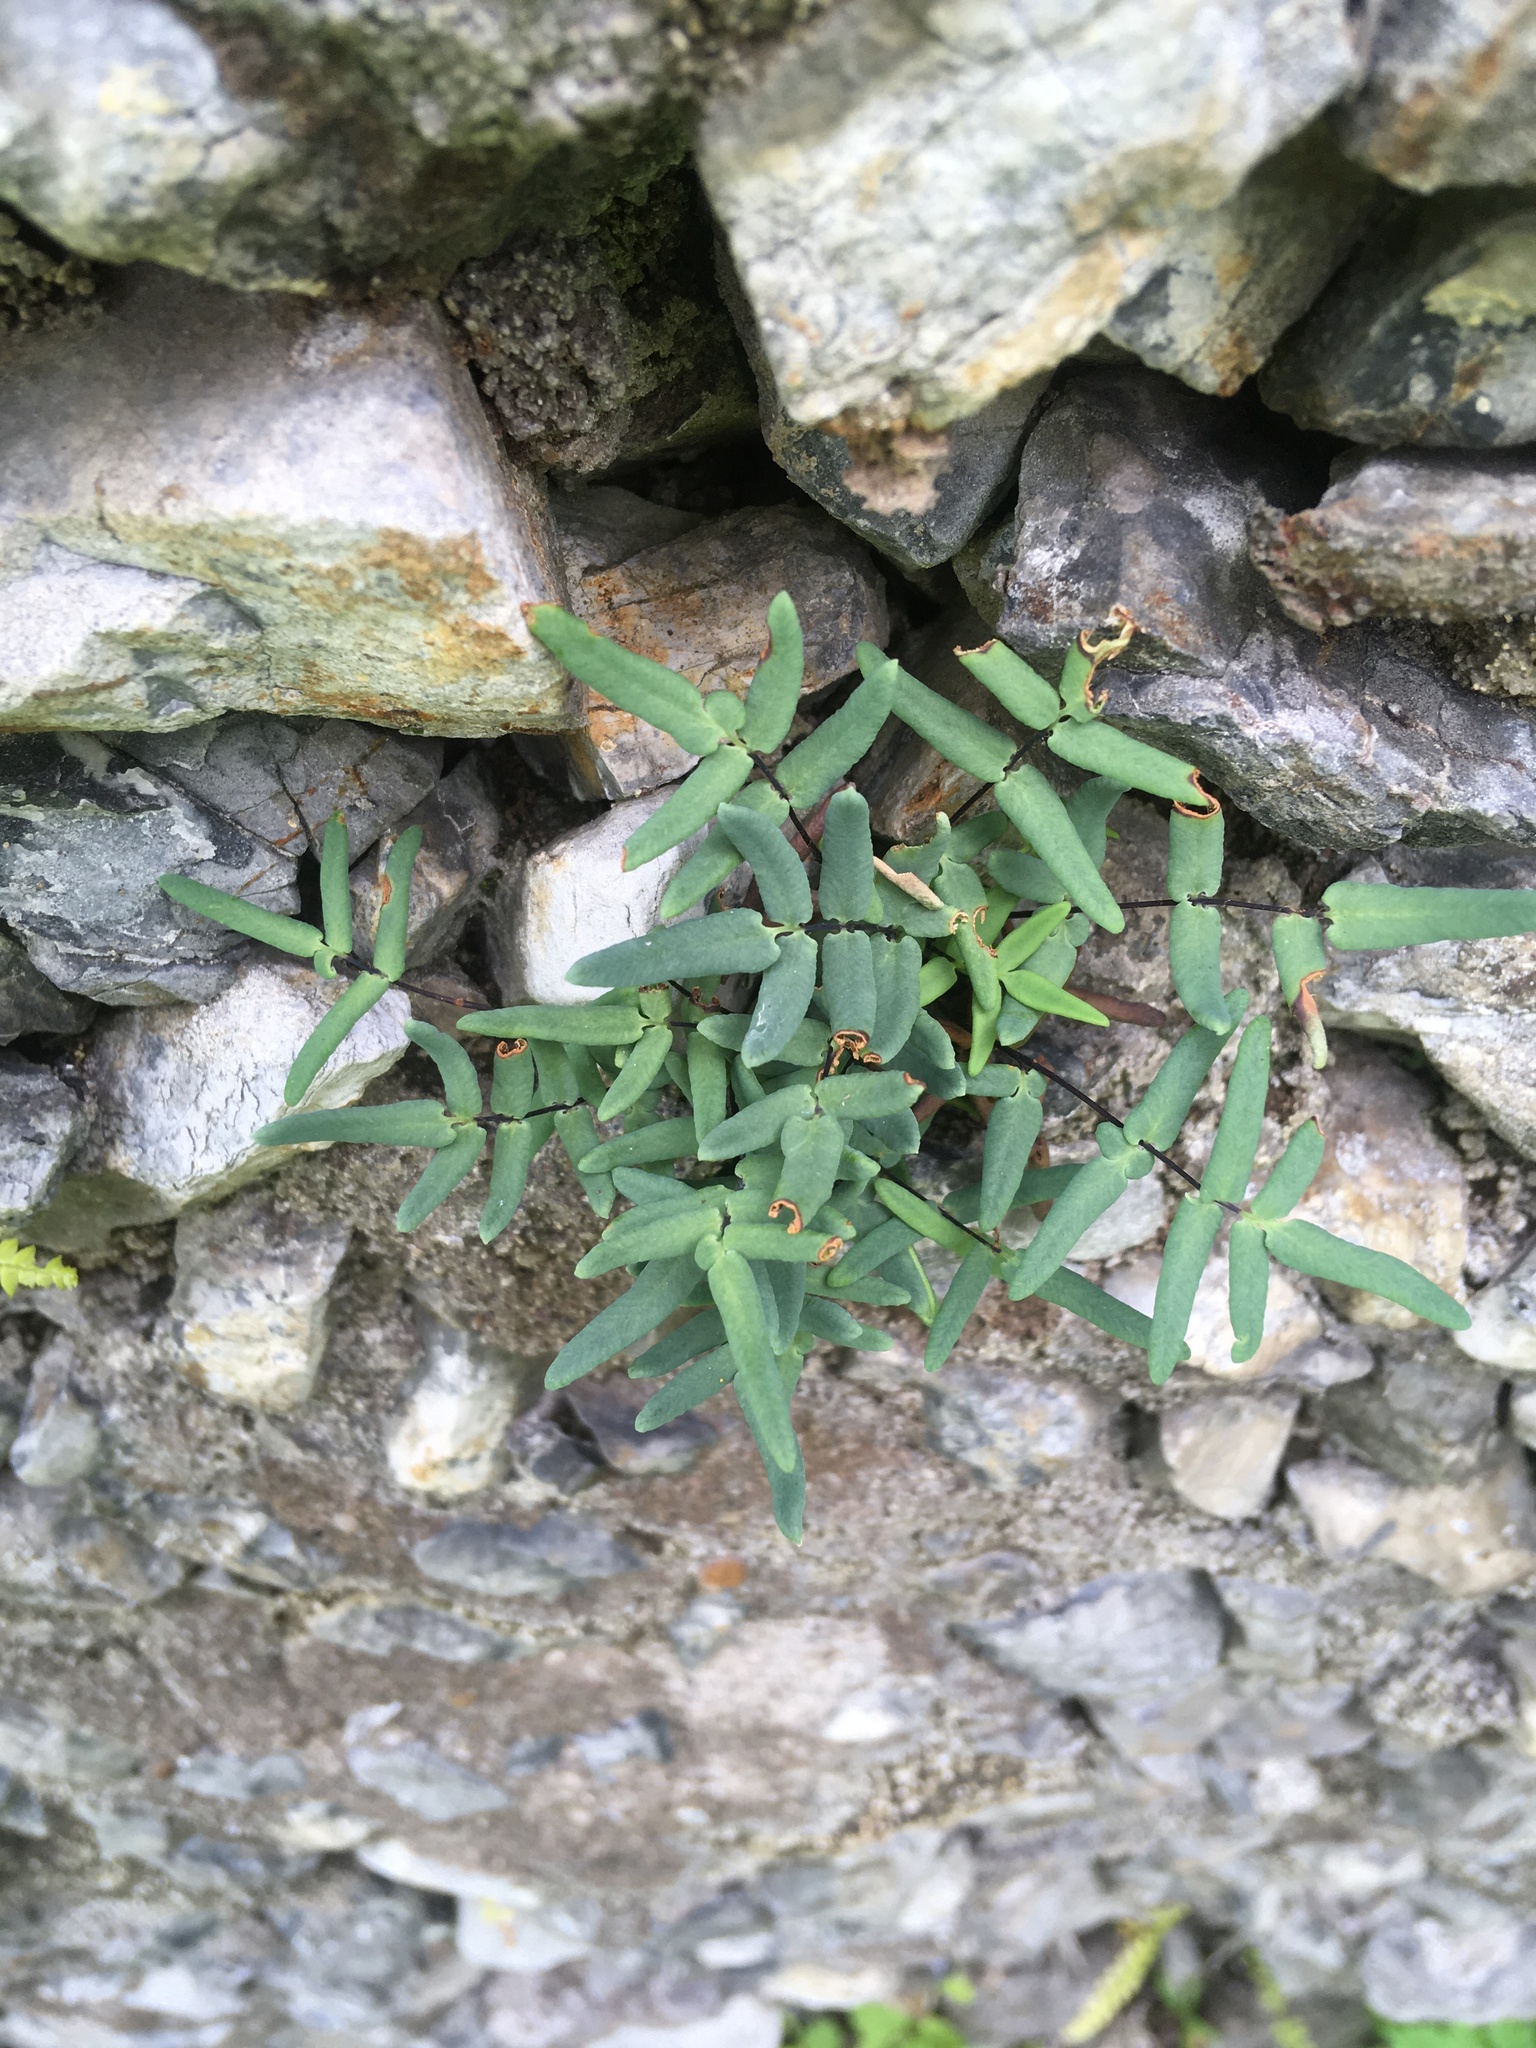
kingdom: Plantae
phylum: Tracheophyta
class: Polypodiopsida
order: Polypodiales
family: Pteridaceae
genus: Pellaea
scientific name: Pellaea glabella
